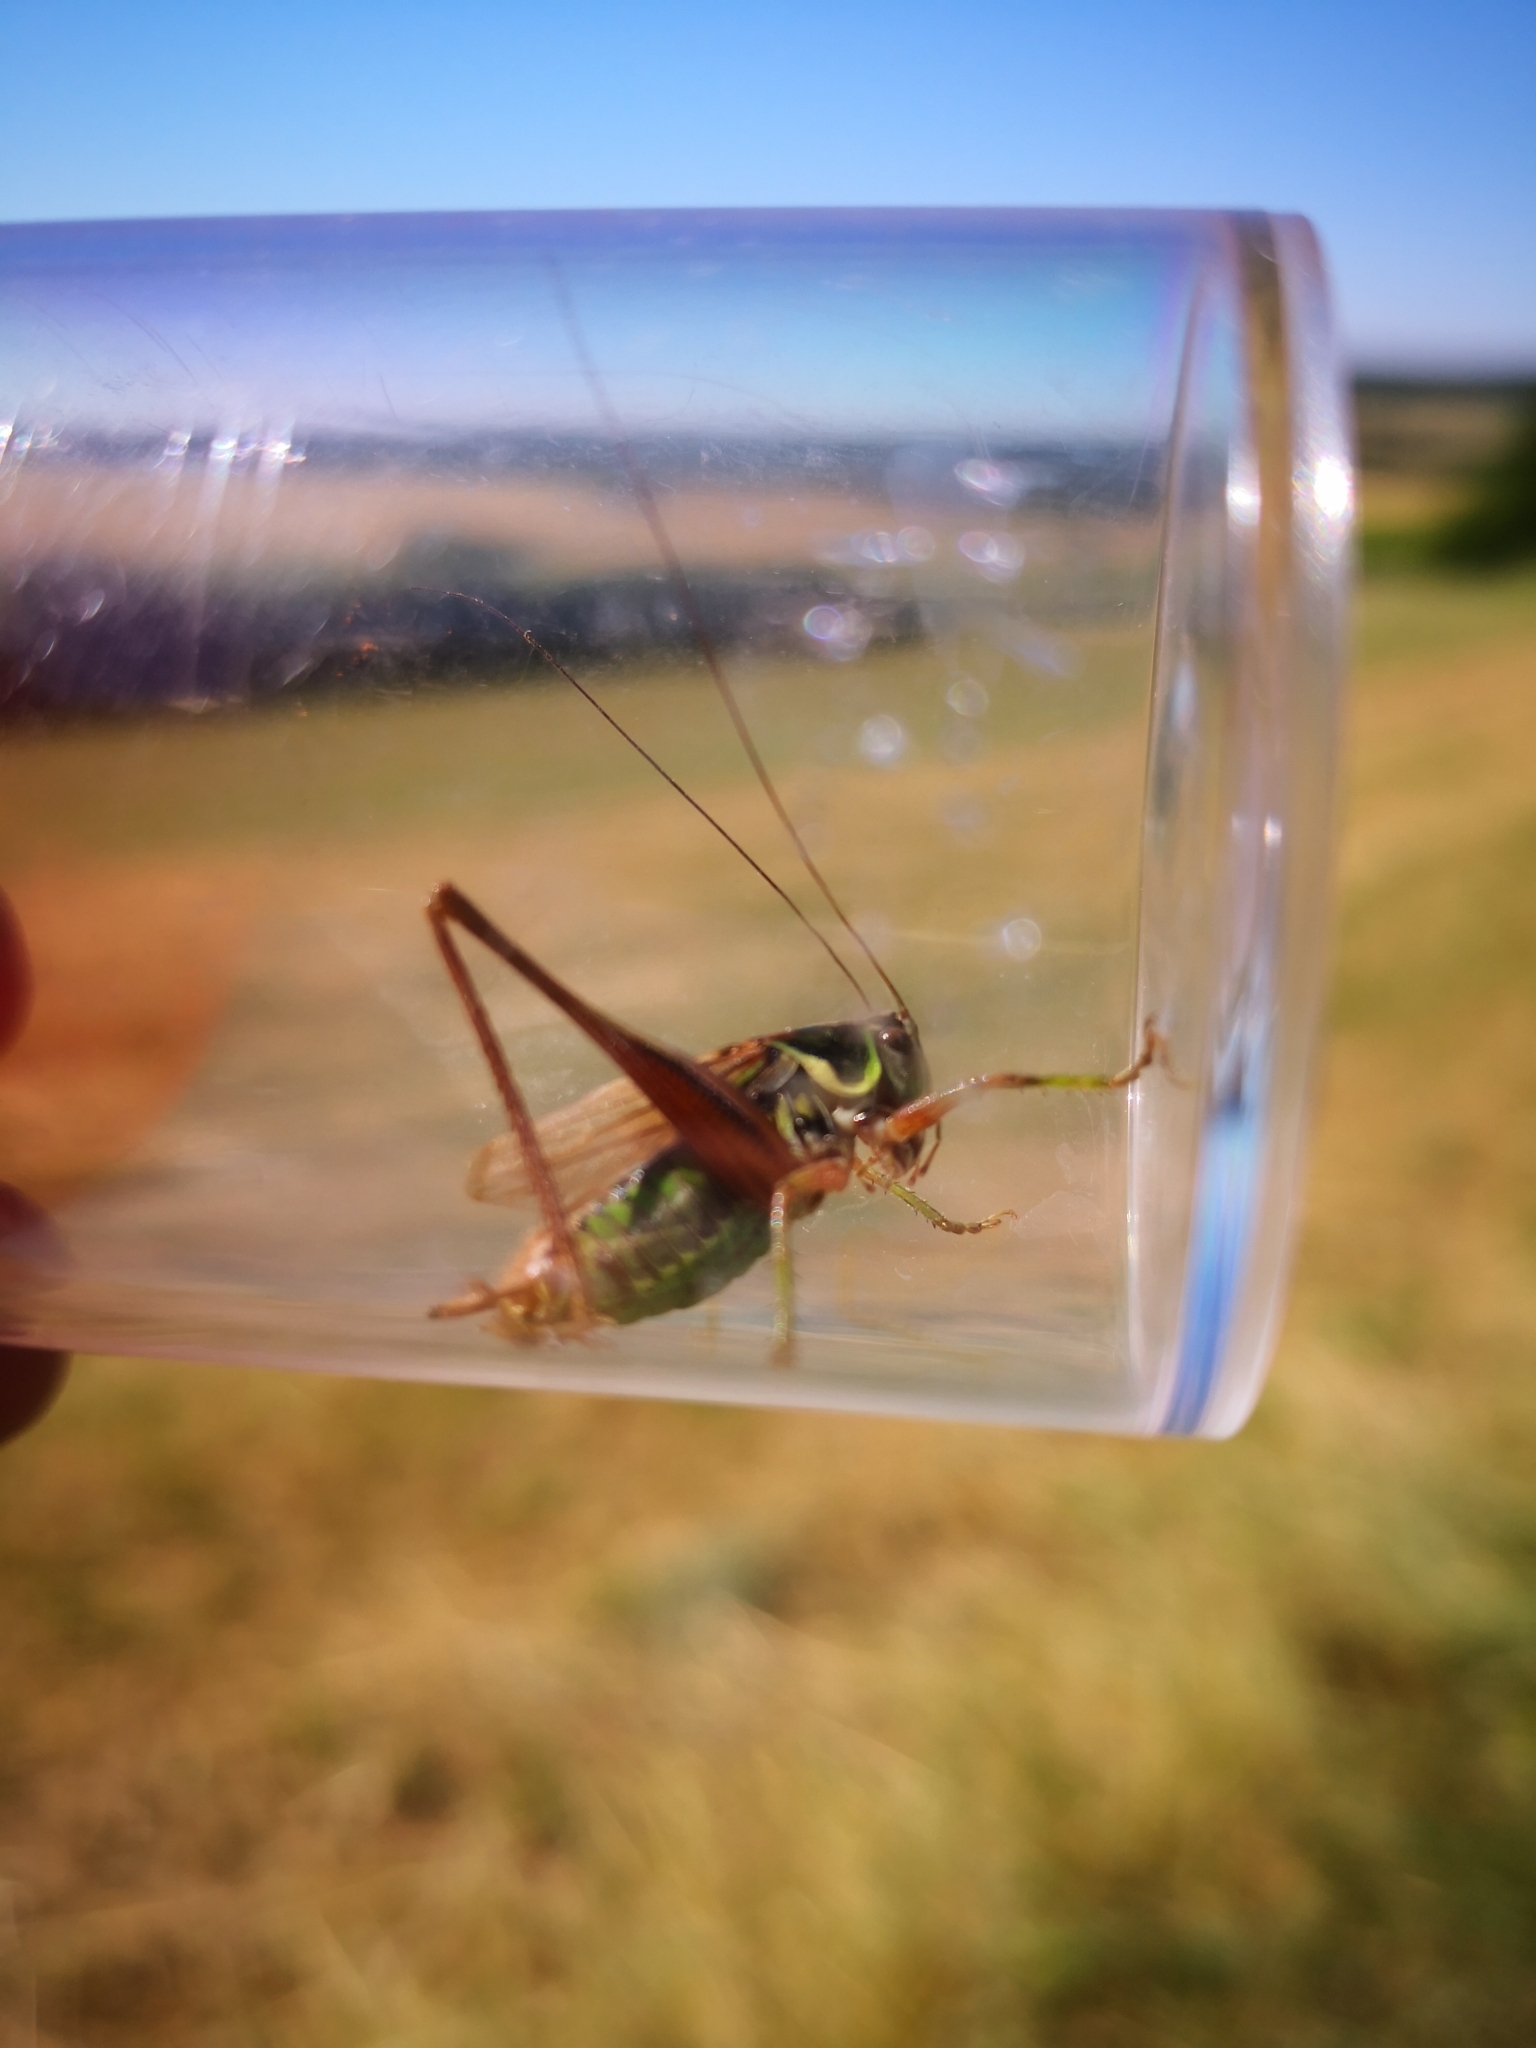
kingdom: Animalia
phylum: Arthropoda
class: Insecta
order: Orthoptera
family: Tettigoniidae
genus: Roeseliana
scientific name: Roeseliana roeselii
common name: Roesel's bush cricket
